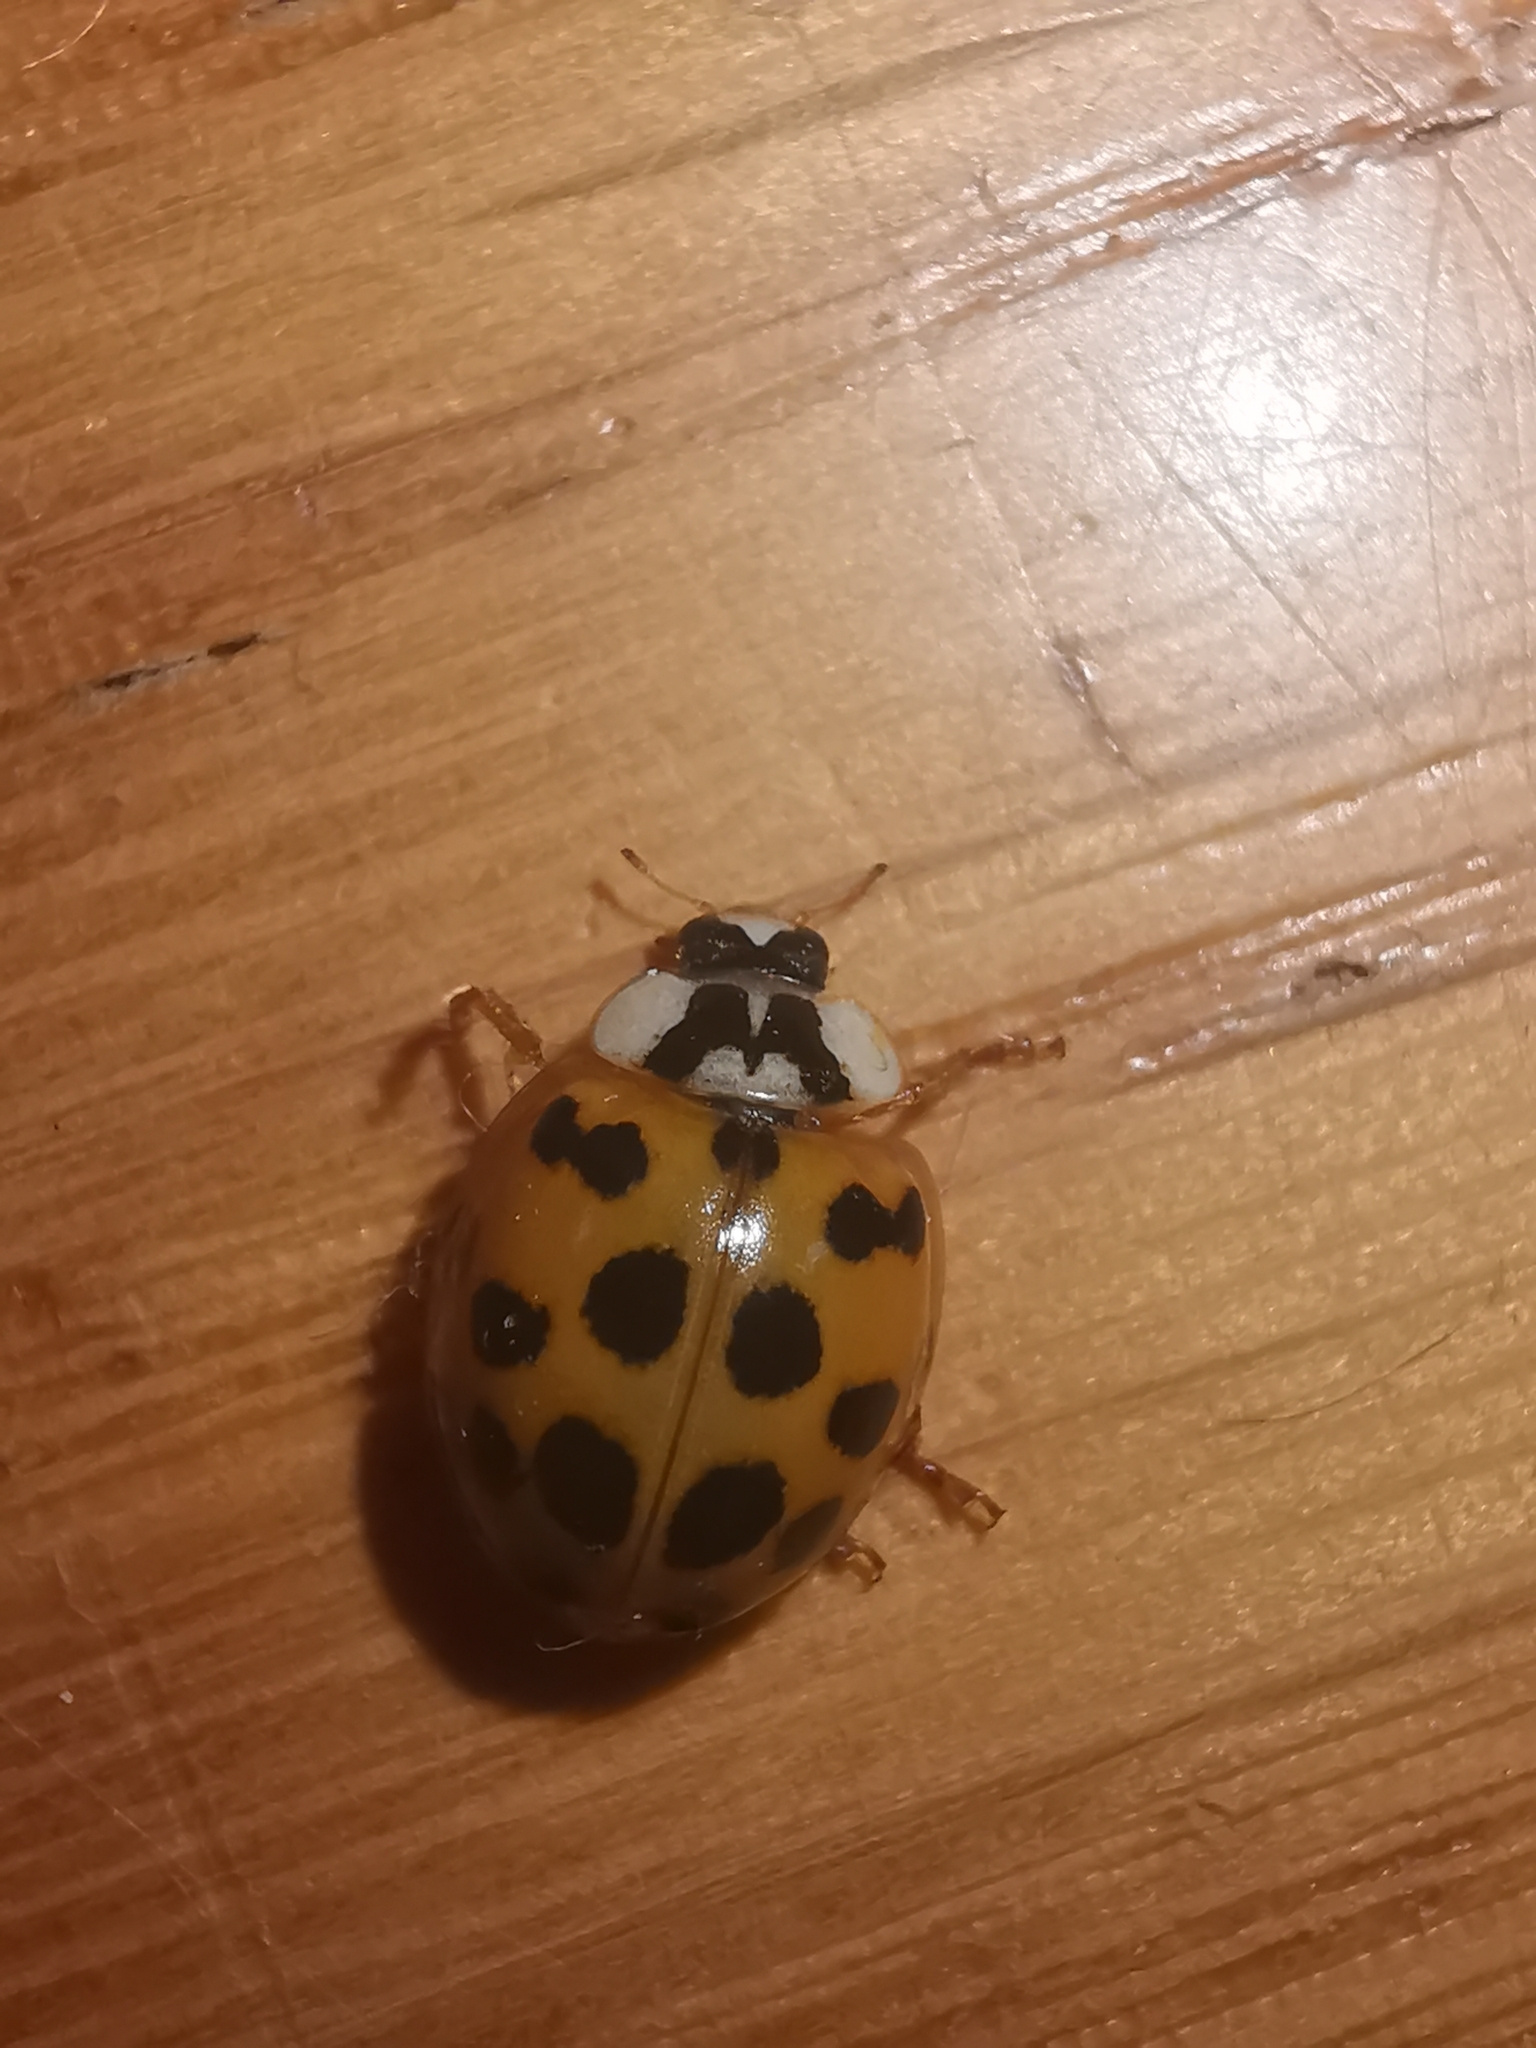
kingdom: Animalia
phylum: Arthropoda
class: Insecta
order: Coleoptera
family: Coccinellidae
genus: Harmonia
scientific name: Harmonia axyridis
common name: Harlequin ladybird
